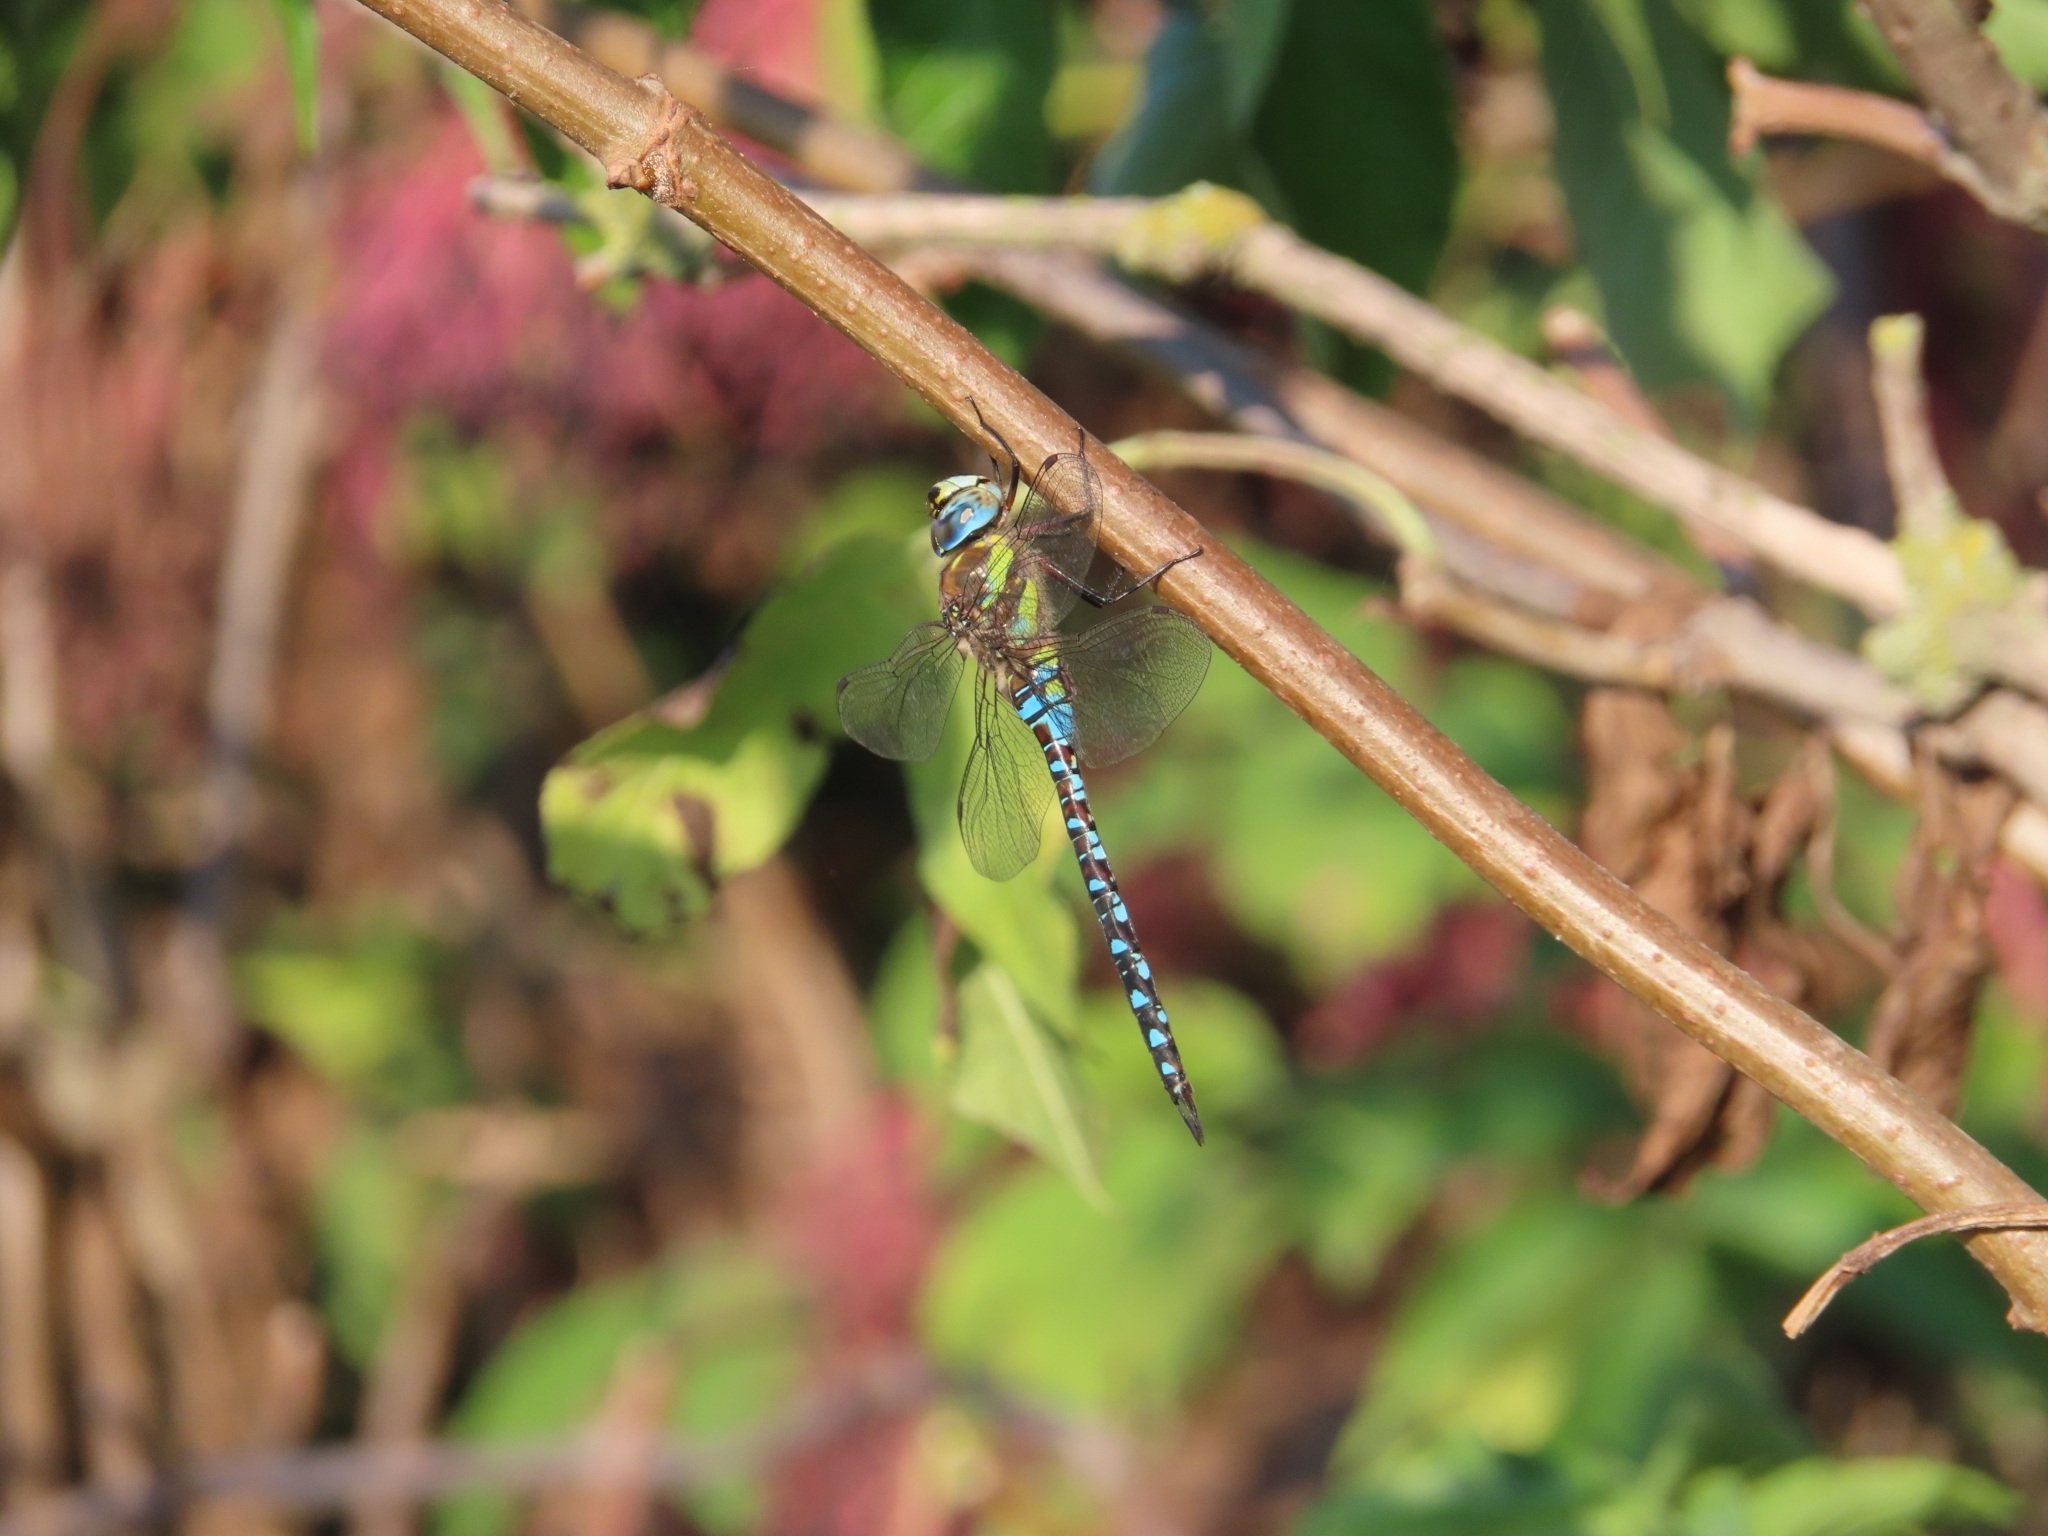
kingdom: Animalia
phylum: Arthropoda
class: Insecta
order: Odonata
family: Aeshnidae
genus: Aeshna
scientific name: Aeshna mixta
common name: Migrant hawker
